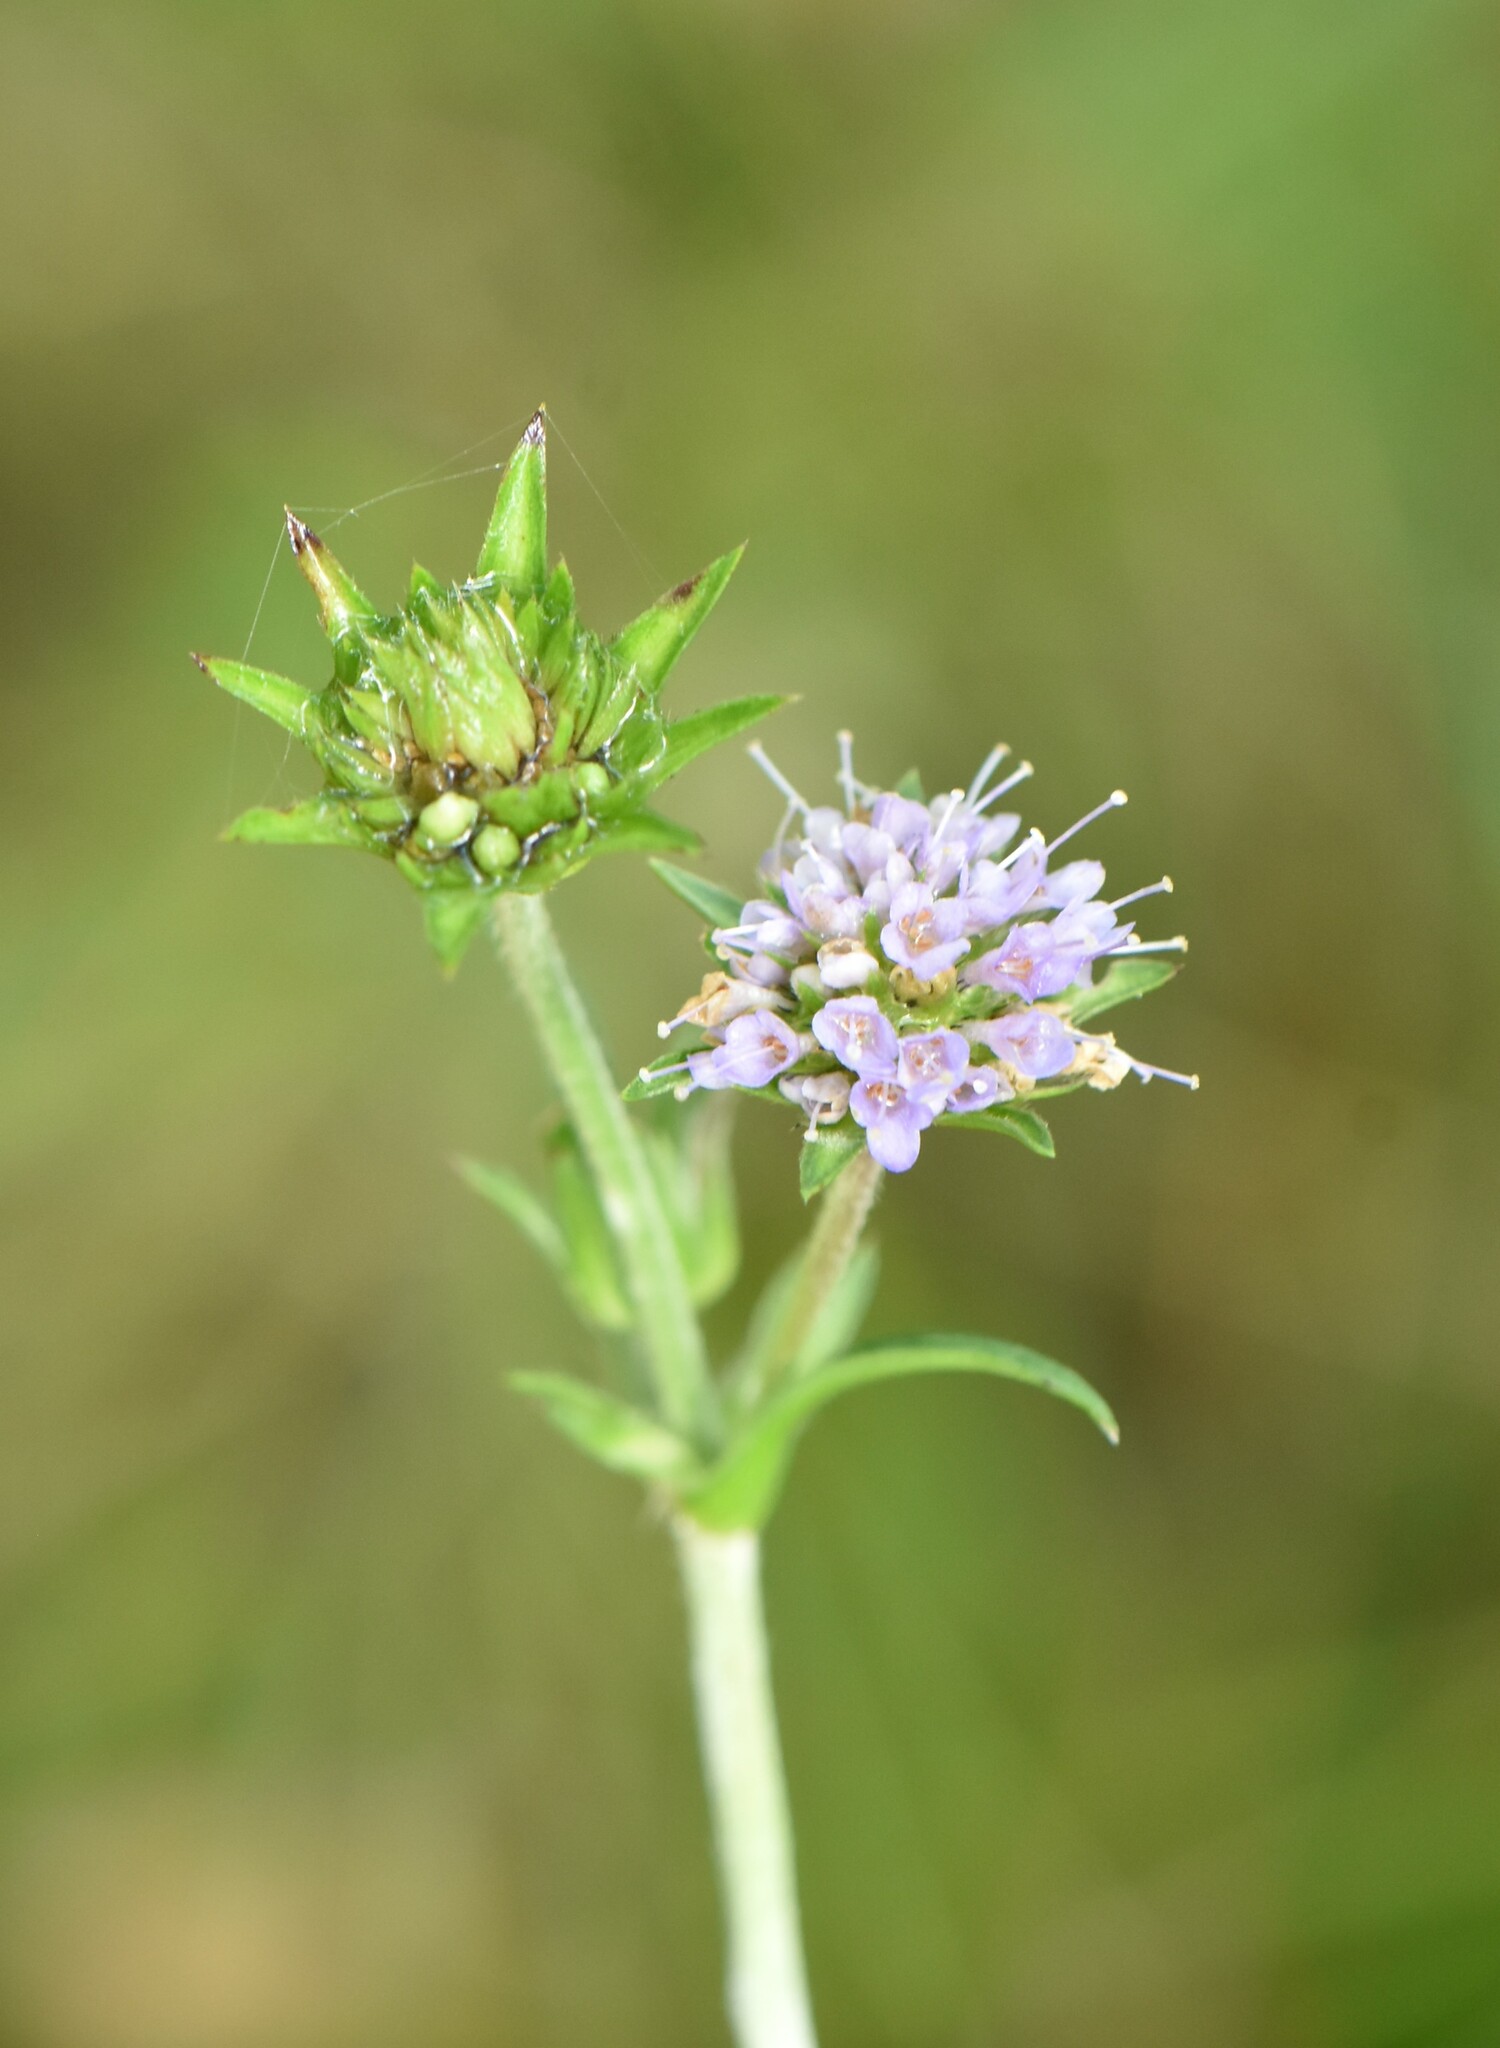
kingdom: Plantae
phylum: Tracheophyta
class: Magnoliopsida
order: Dipsacales
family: Caprifoliaceae
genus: Succisa
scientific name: Succisa pratensis
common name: Devil's-bit
